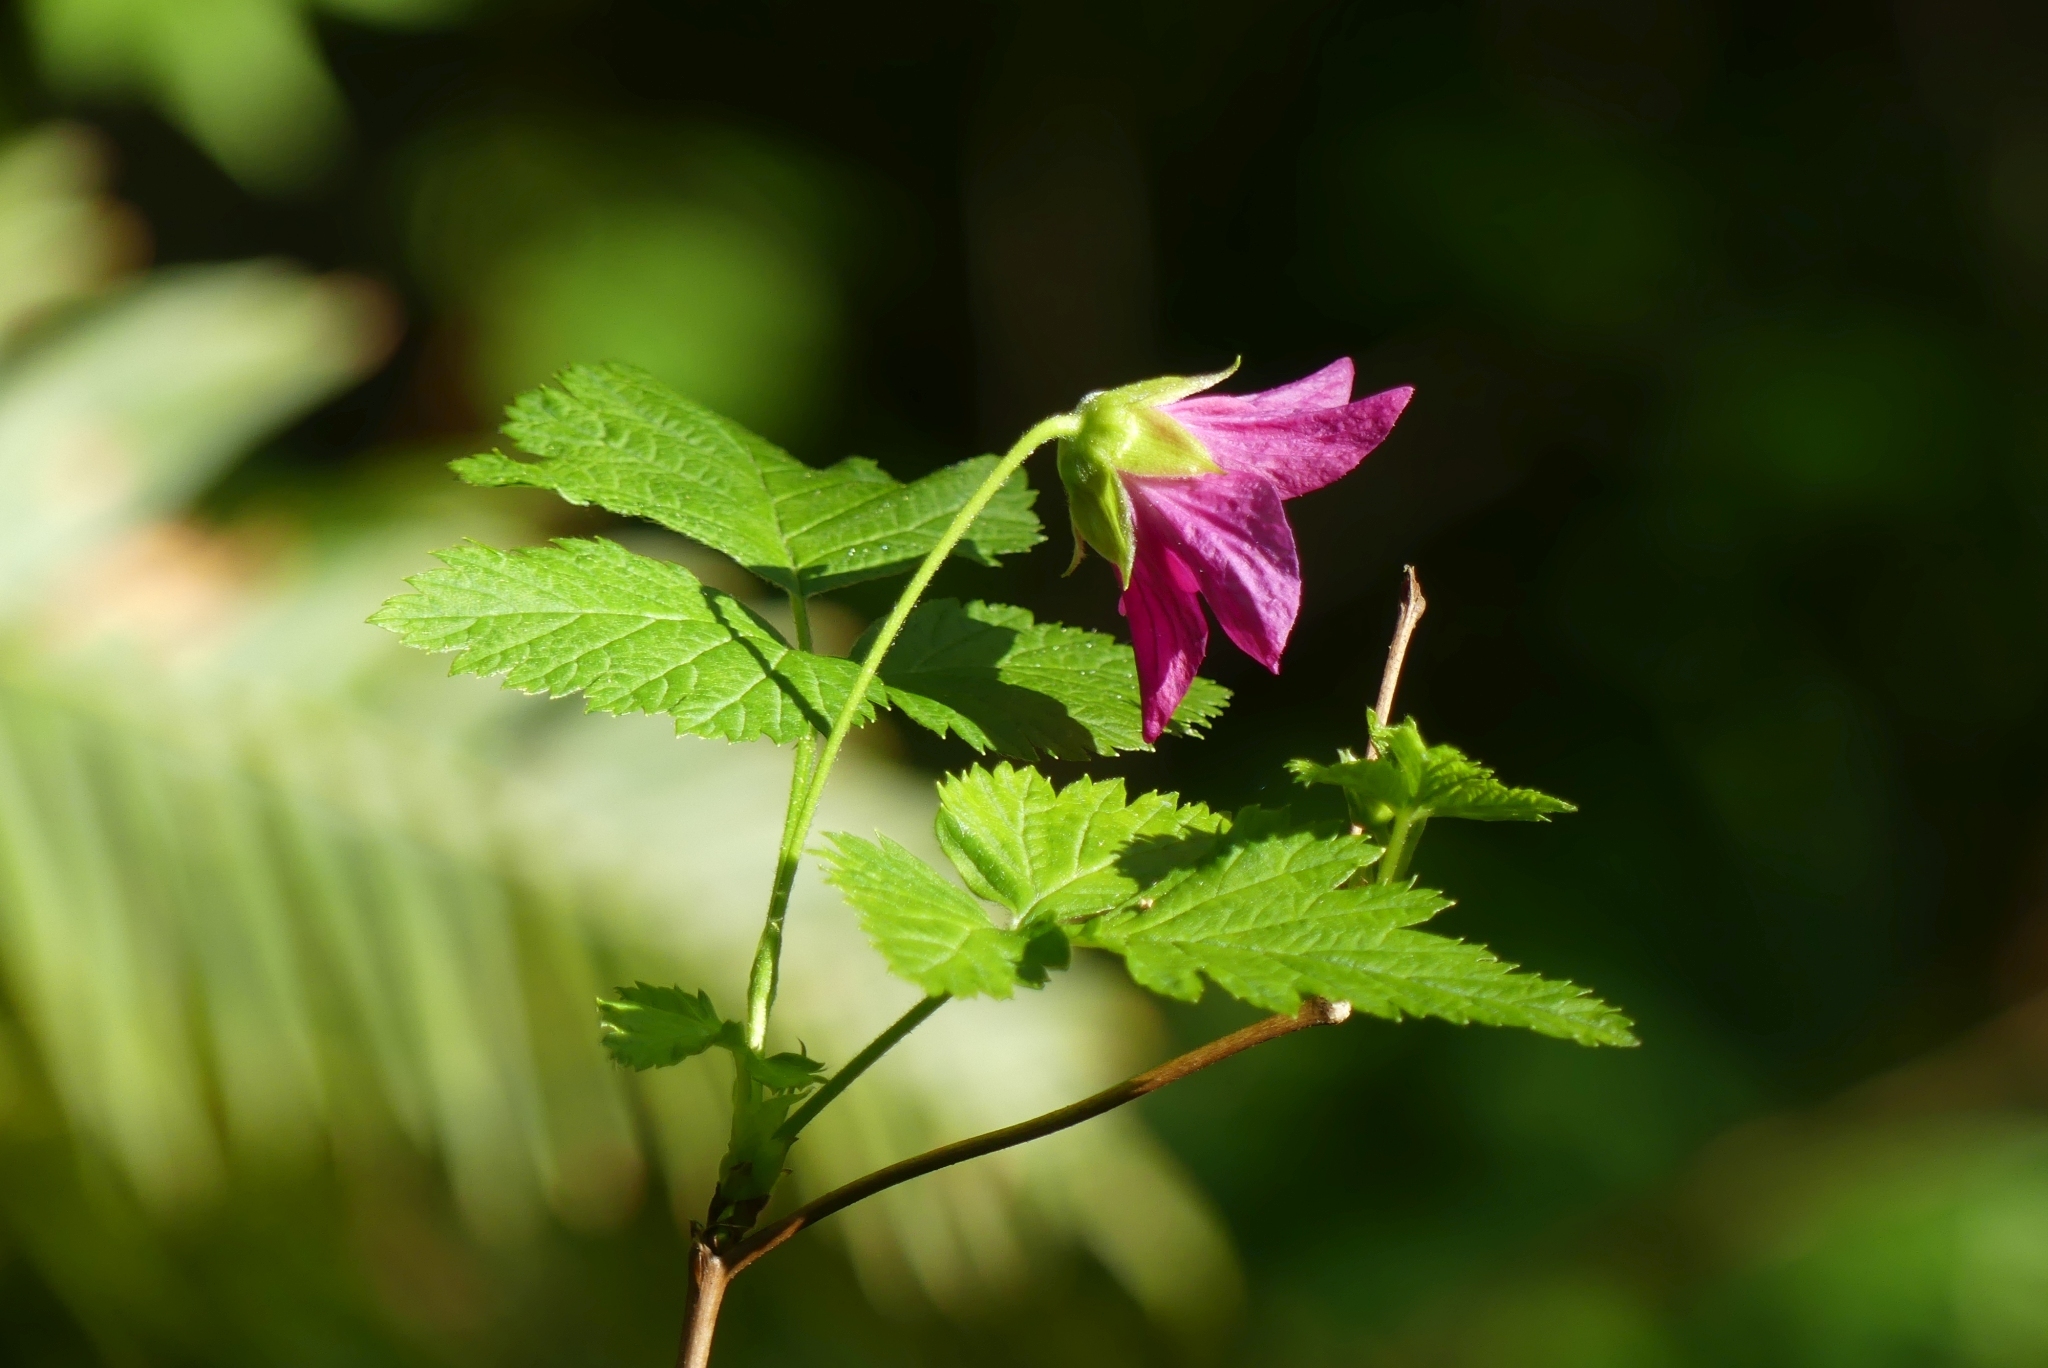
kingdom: Plantae
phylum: Tracheophyta
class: Magnoliopsida
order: Rosales
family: Rosaceae
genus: Rubus
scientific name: Rubus spectabilis
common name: Salmonberry
